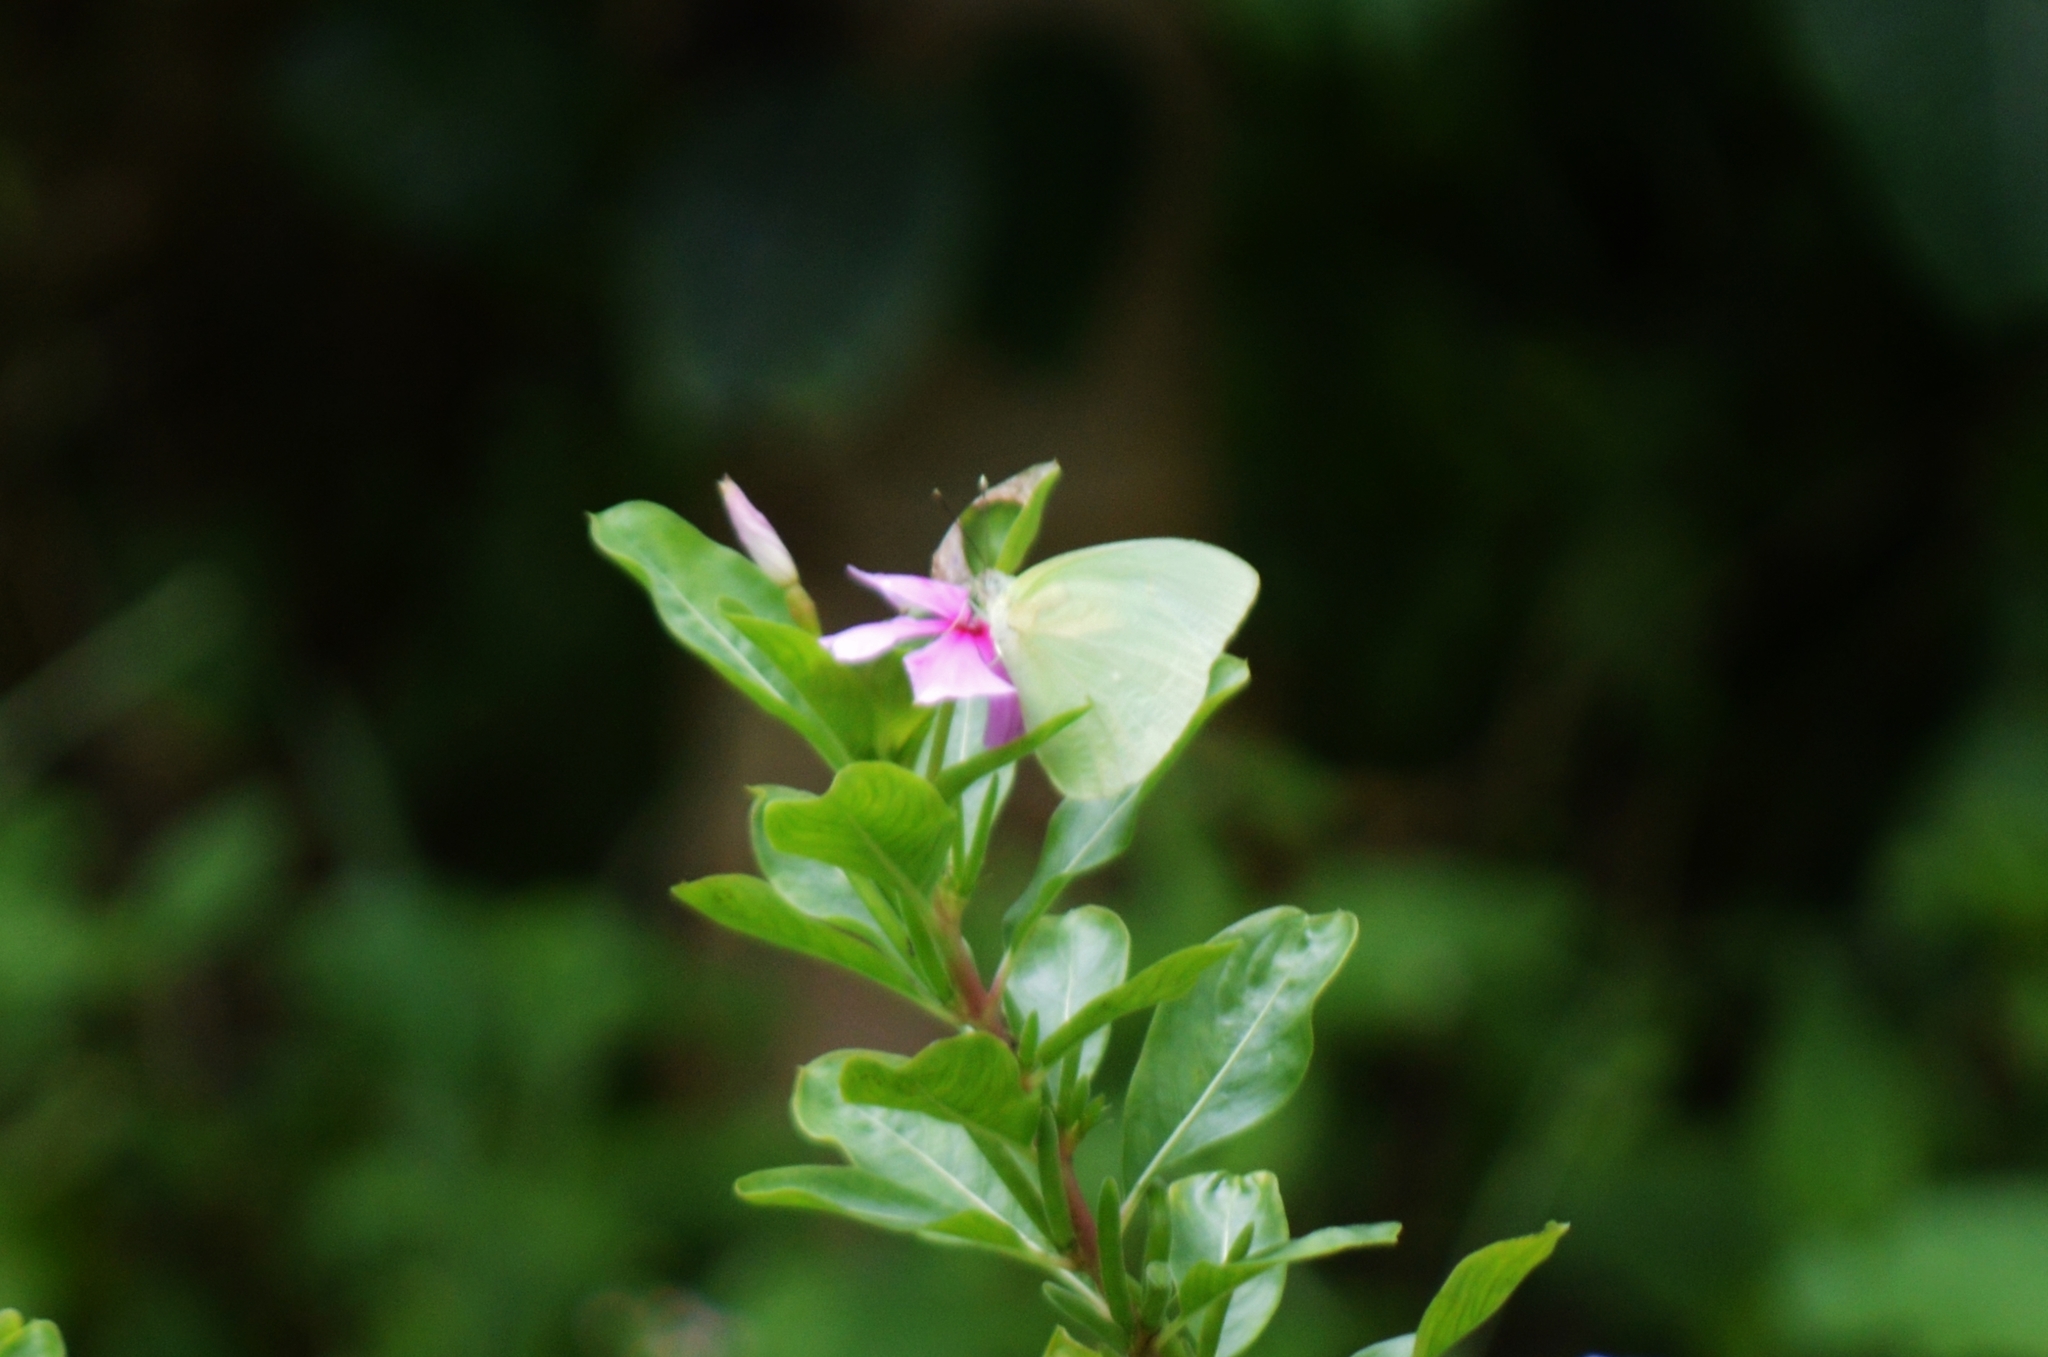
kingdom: Animalia
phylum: Arthropoda
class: Insecta
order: Lepidoptera
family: Pieridae
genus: Aphrissa
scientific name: Aphrissa statira
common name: Statira sulphur
